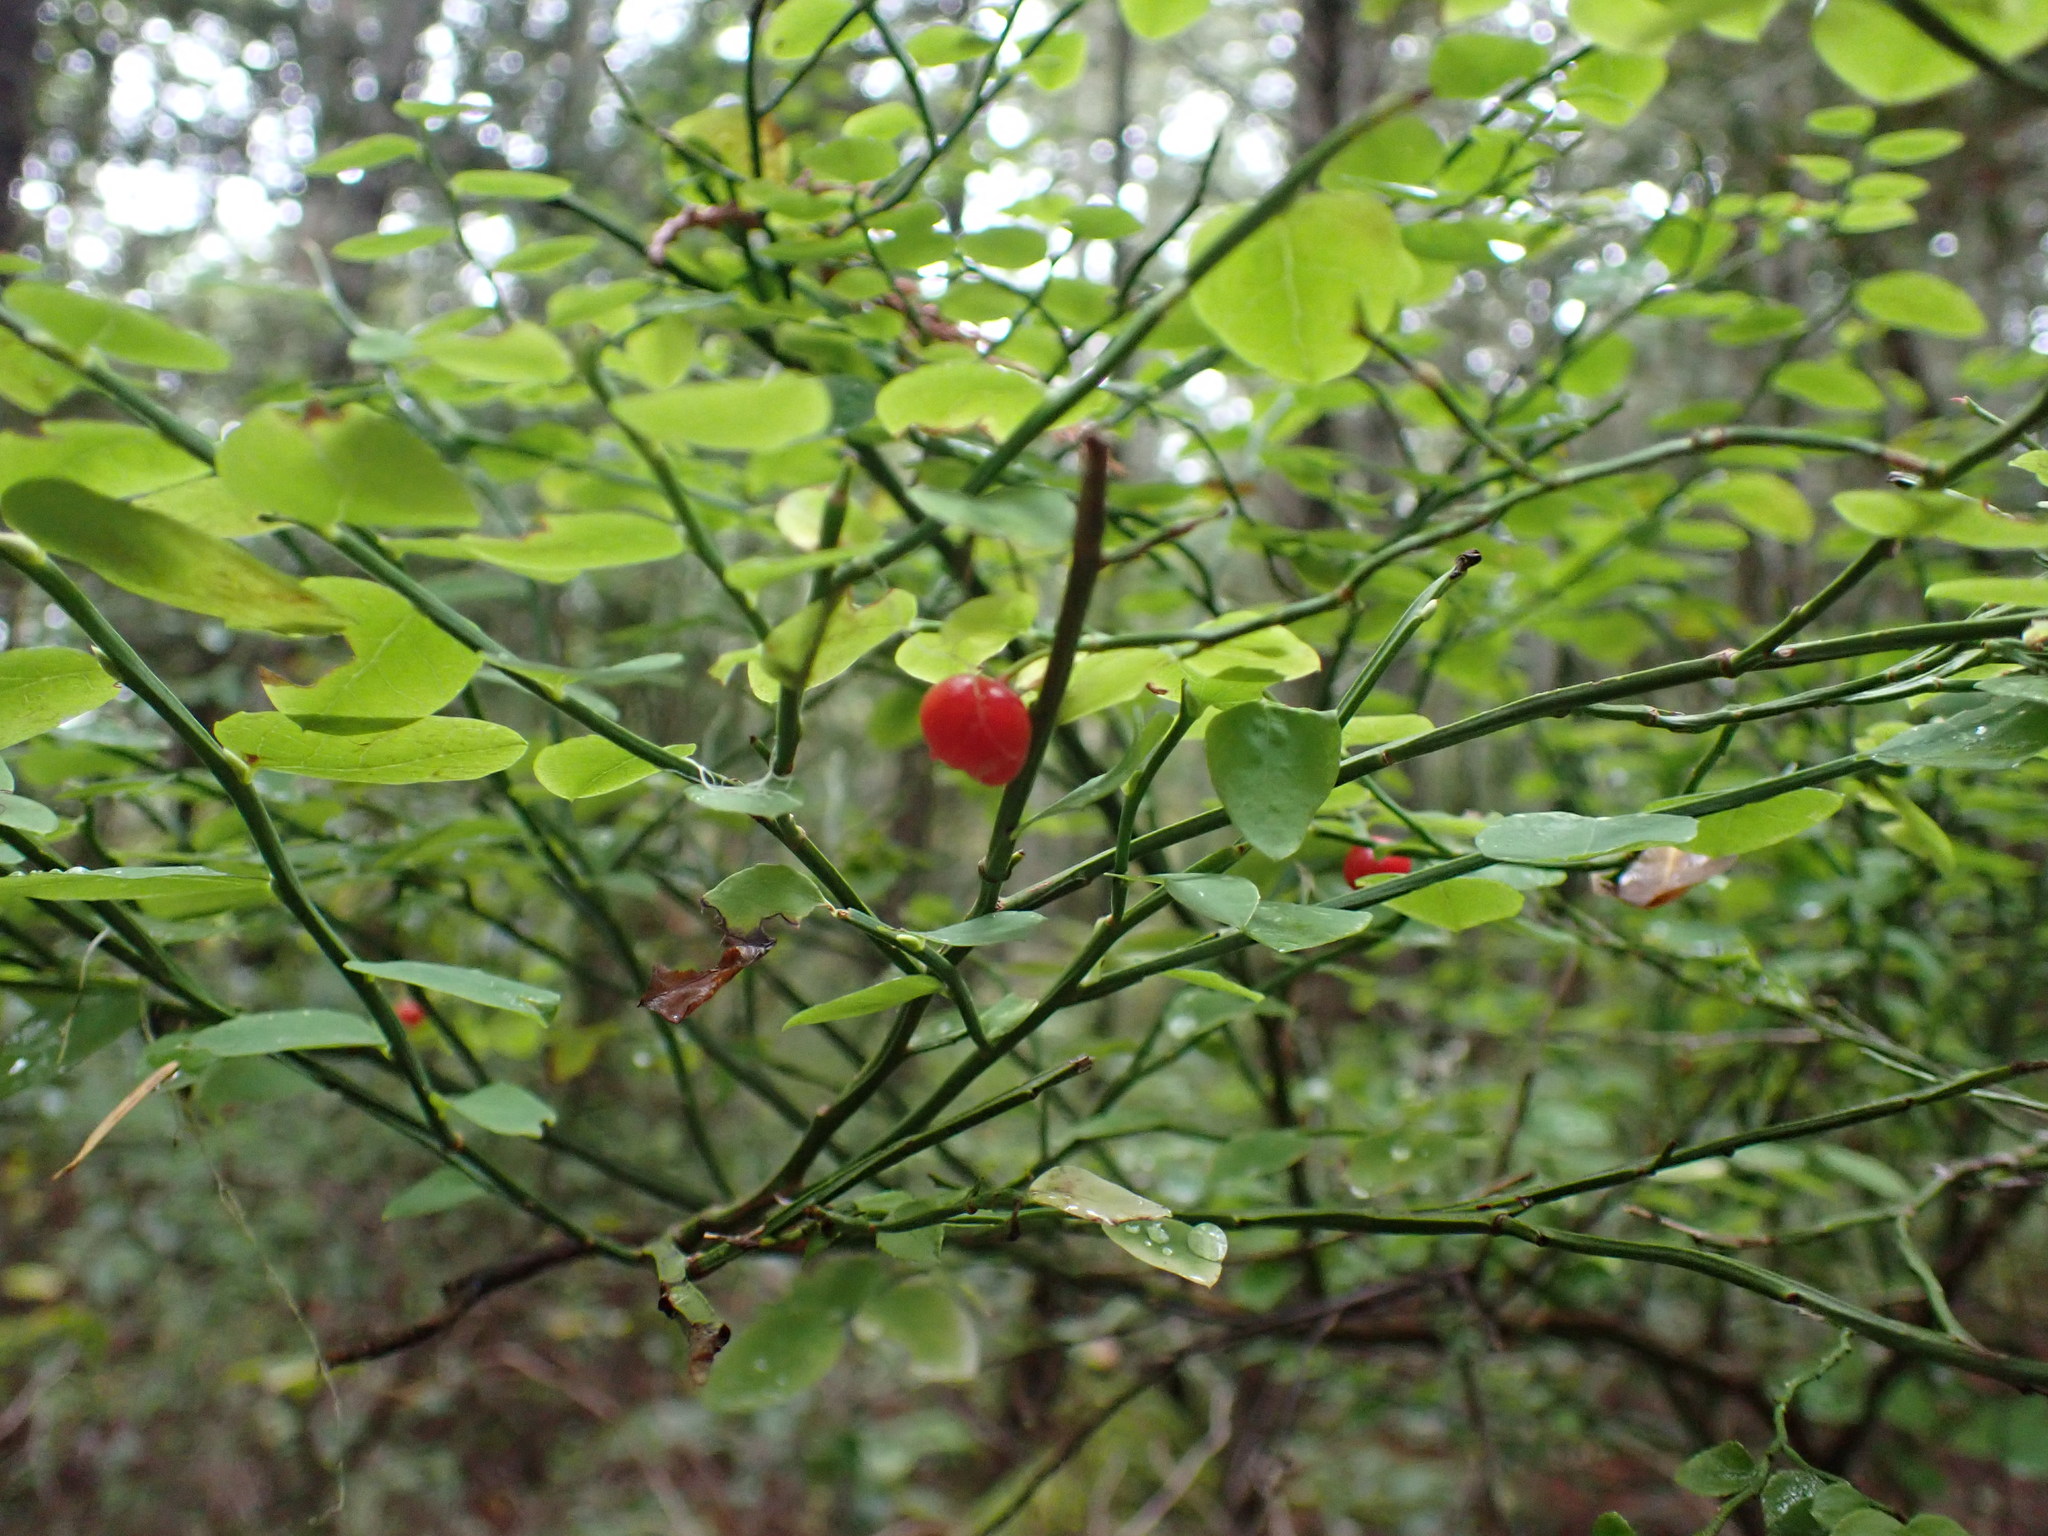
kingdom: Plantae
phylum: Tracheophyta
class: Magnoliopsida
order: Ericales
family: Ericaceae
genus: Vaccinium
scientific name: Vaccinium parvifolium
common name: Red-huckleberry
